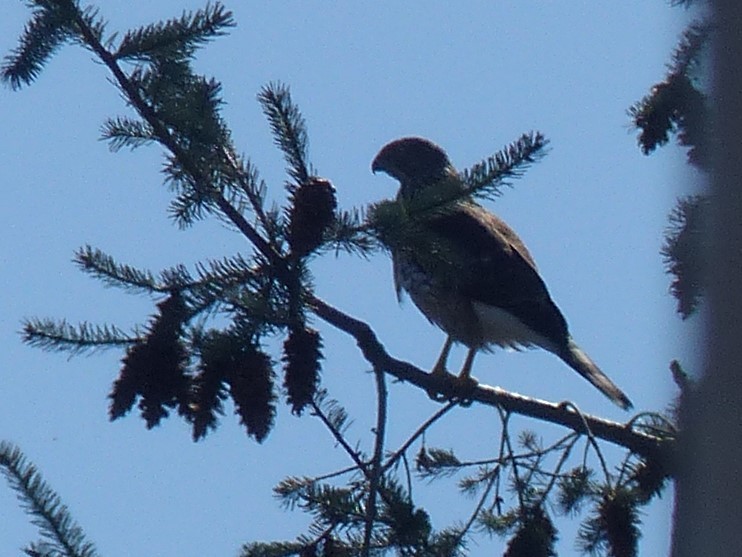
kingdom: Animalia
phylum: Chordata
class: Aves
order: Accipitriformes
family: Accipitridae
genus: Accipiter
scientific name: Accipiter cooperii
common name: Cooper's hawk
